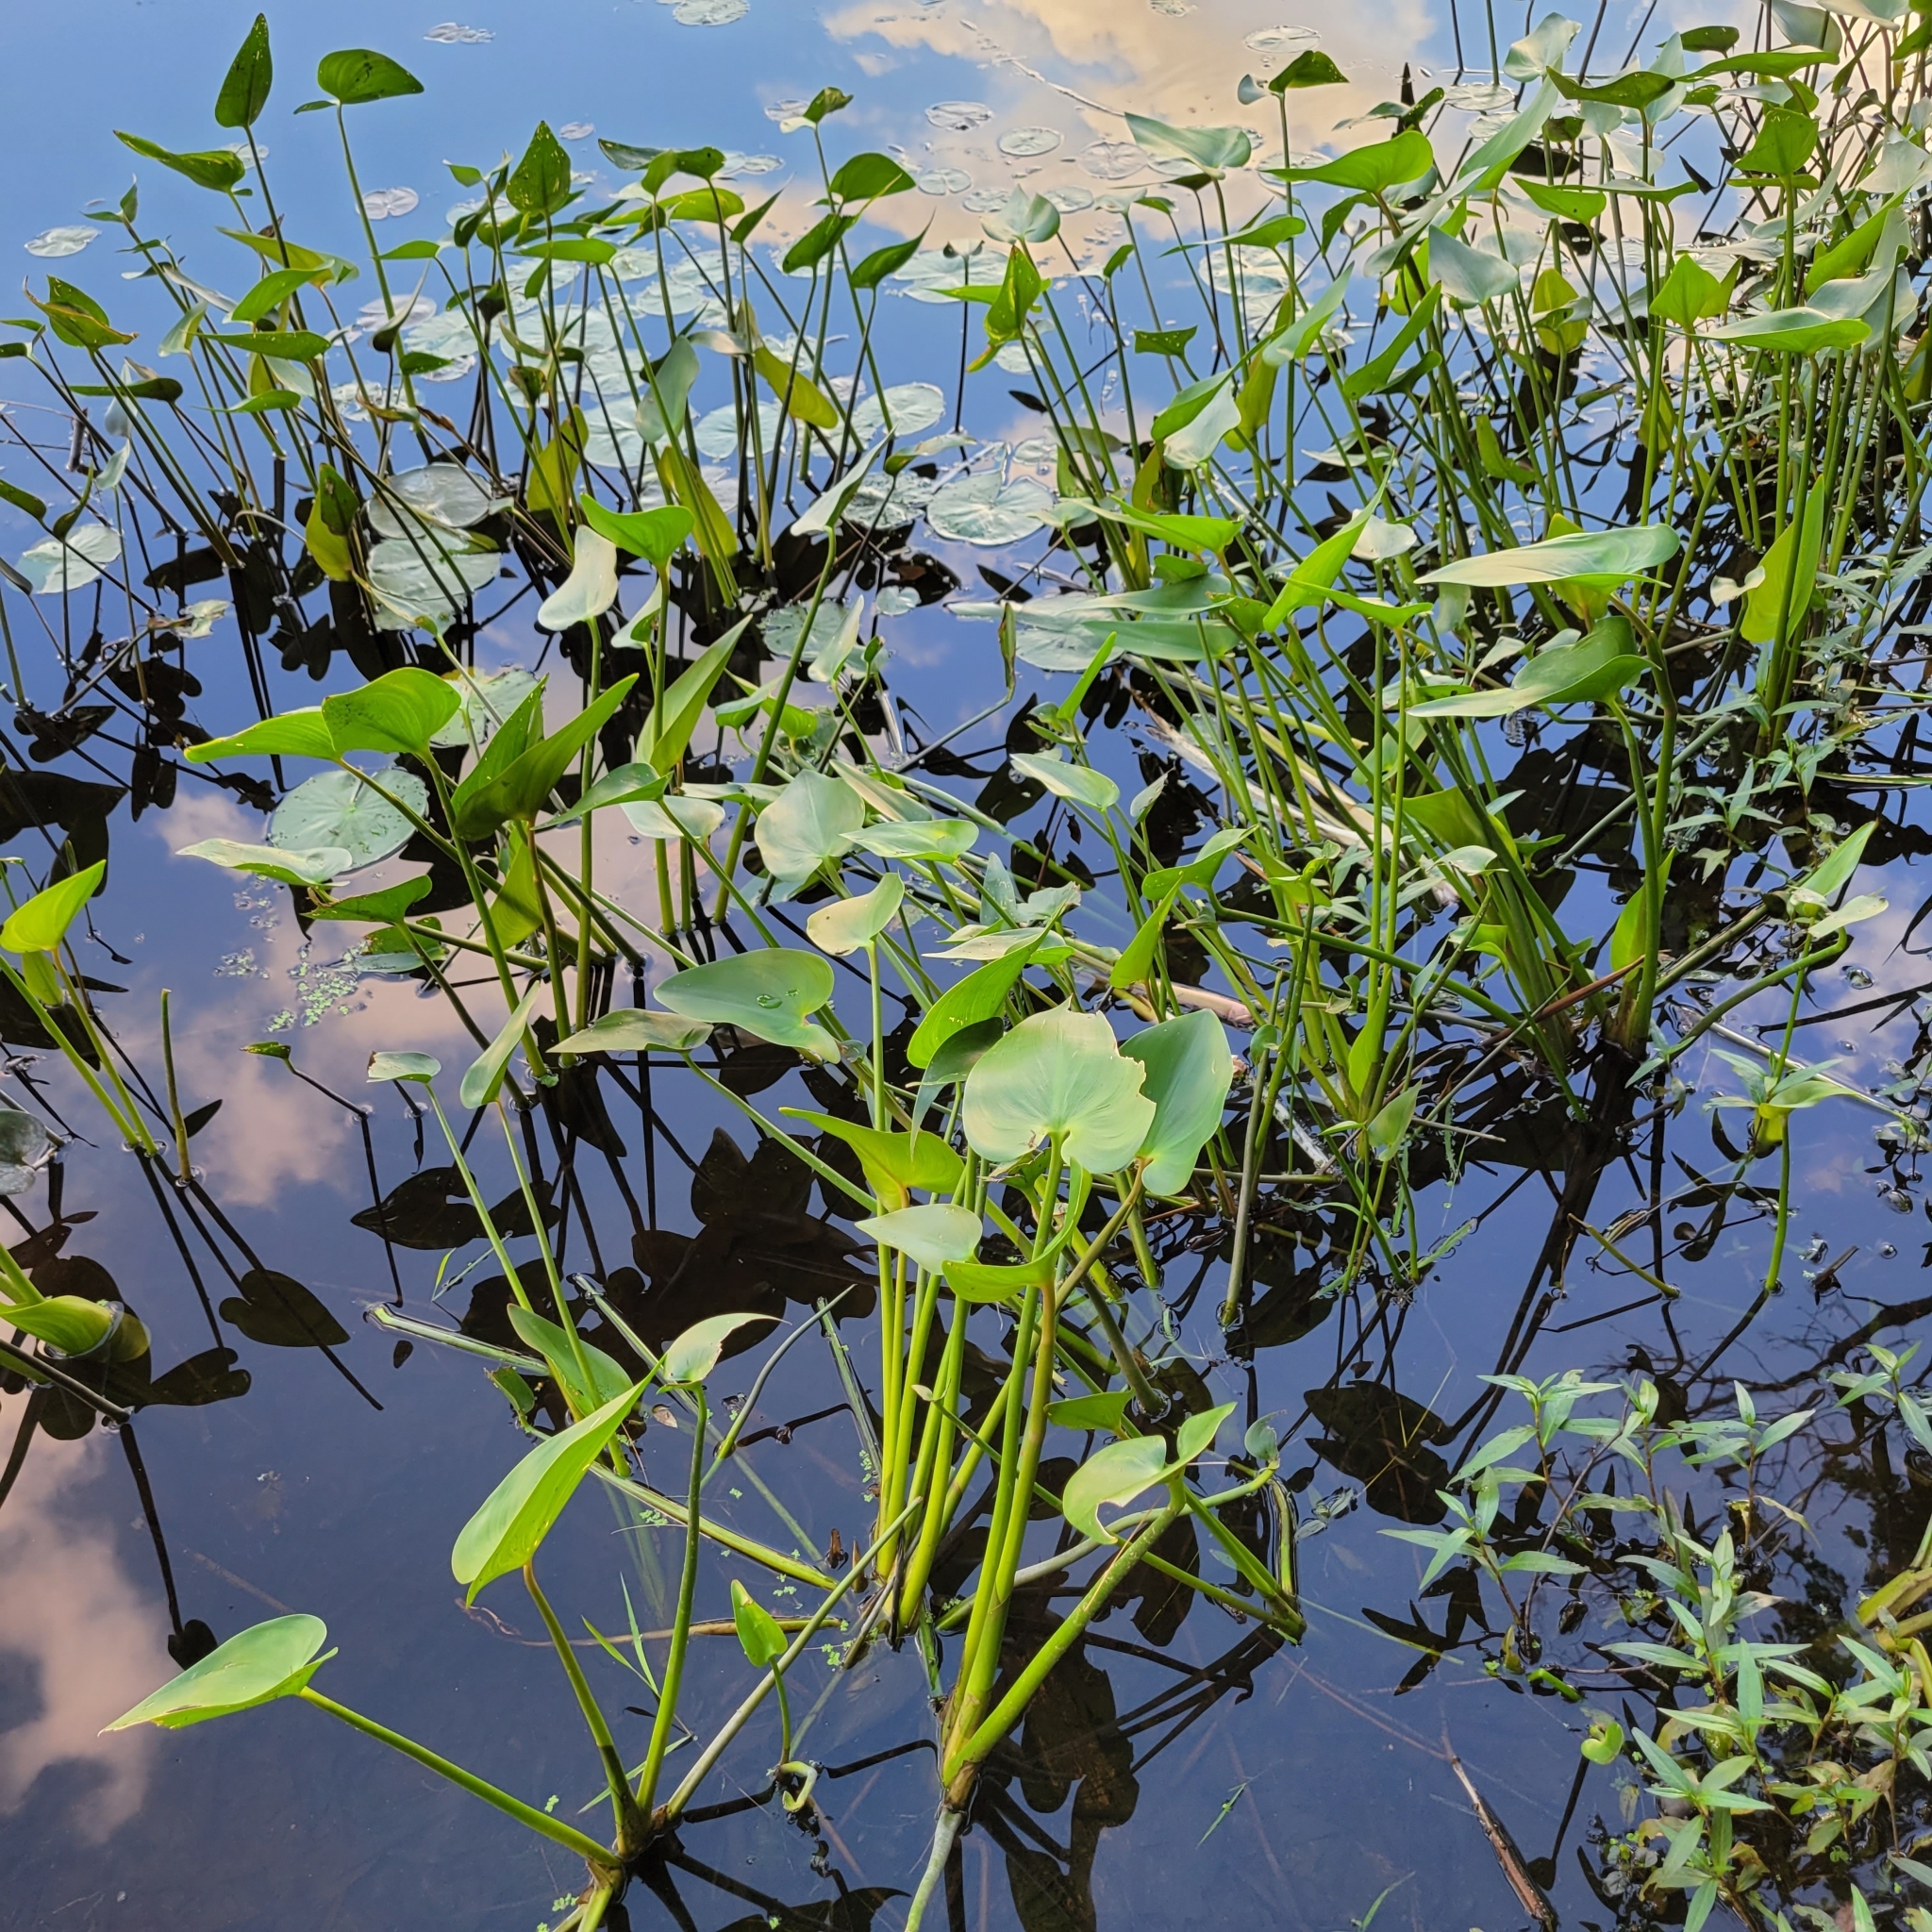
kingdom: Plantae
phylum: Tracheophyta
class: Liliopsida
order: Commelinales
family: Pontederiaceae
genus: Pontederia
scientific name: Pontederia cordata
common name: Pickerelweed
